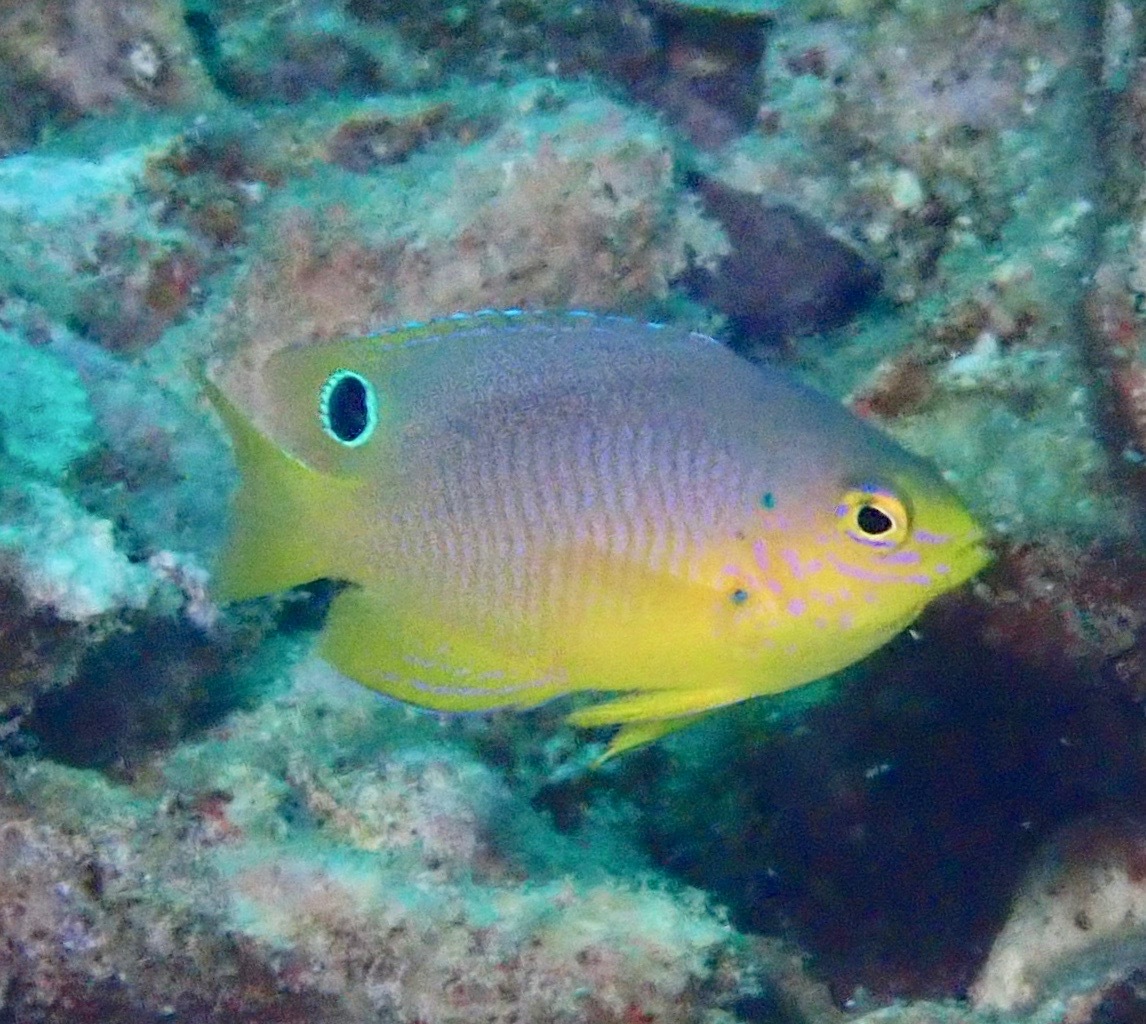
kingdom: Animalia
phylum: Chordata
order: Perciformes
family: Pomacentridae
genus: Pomacentrus
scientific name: Pomacentrus andamanensis
